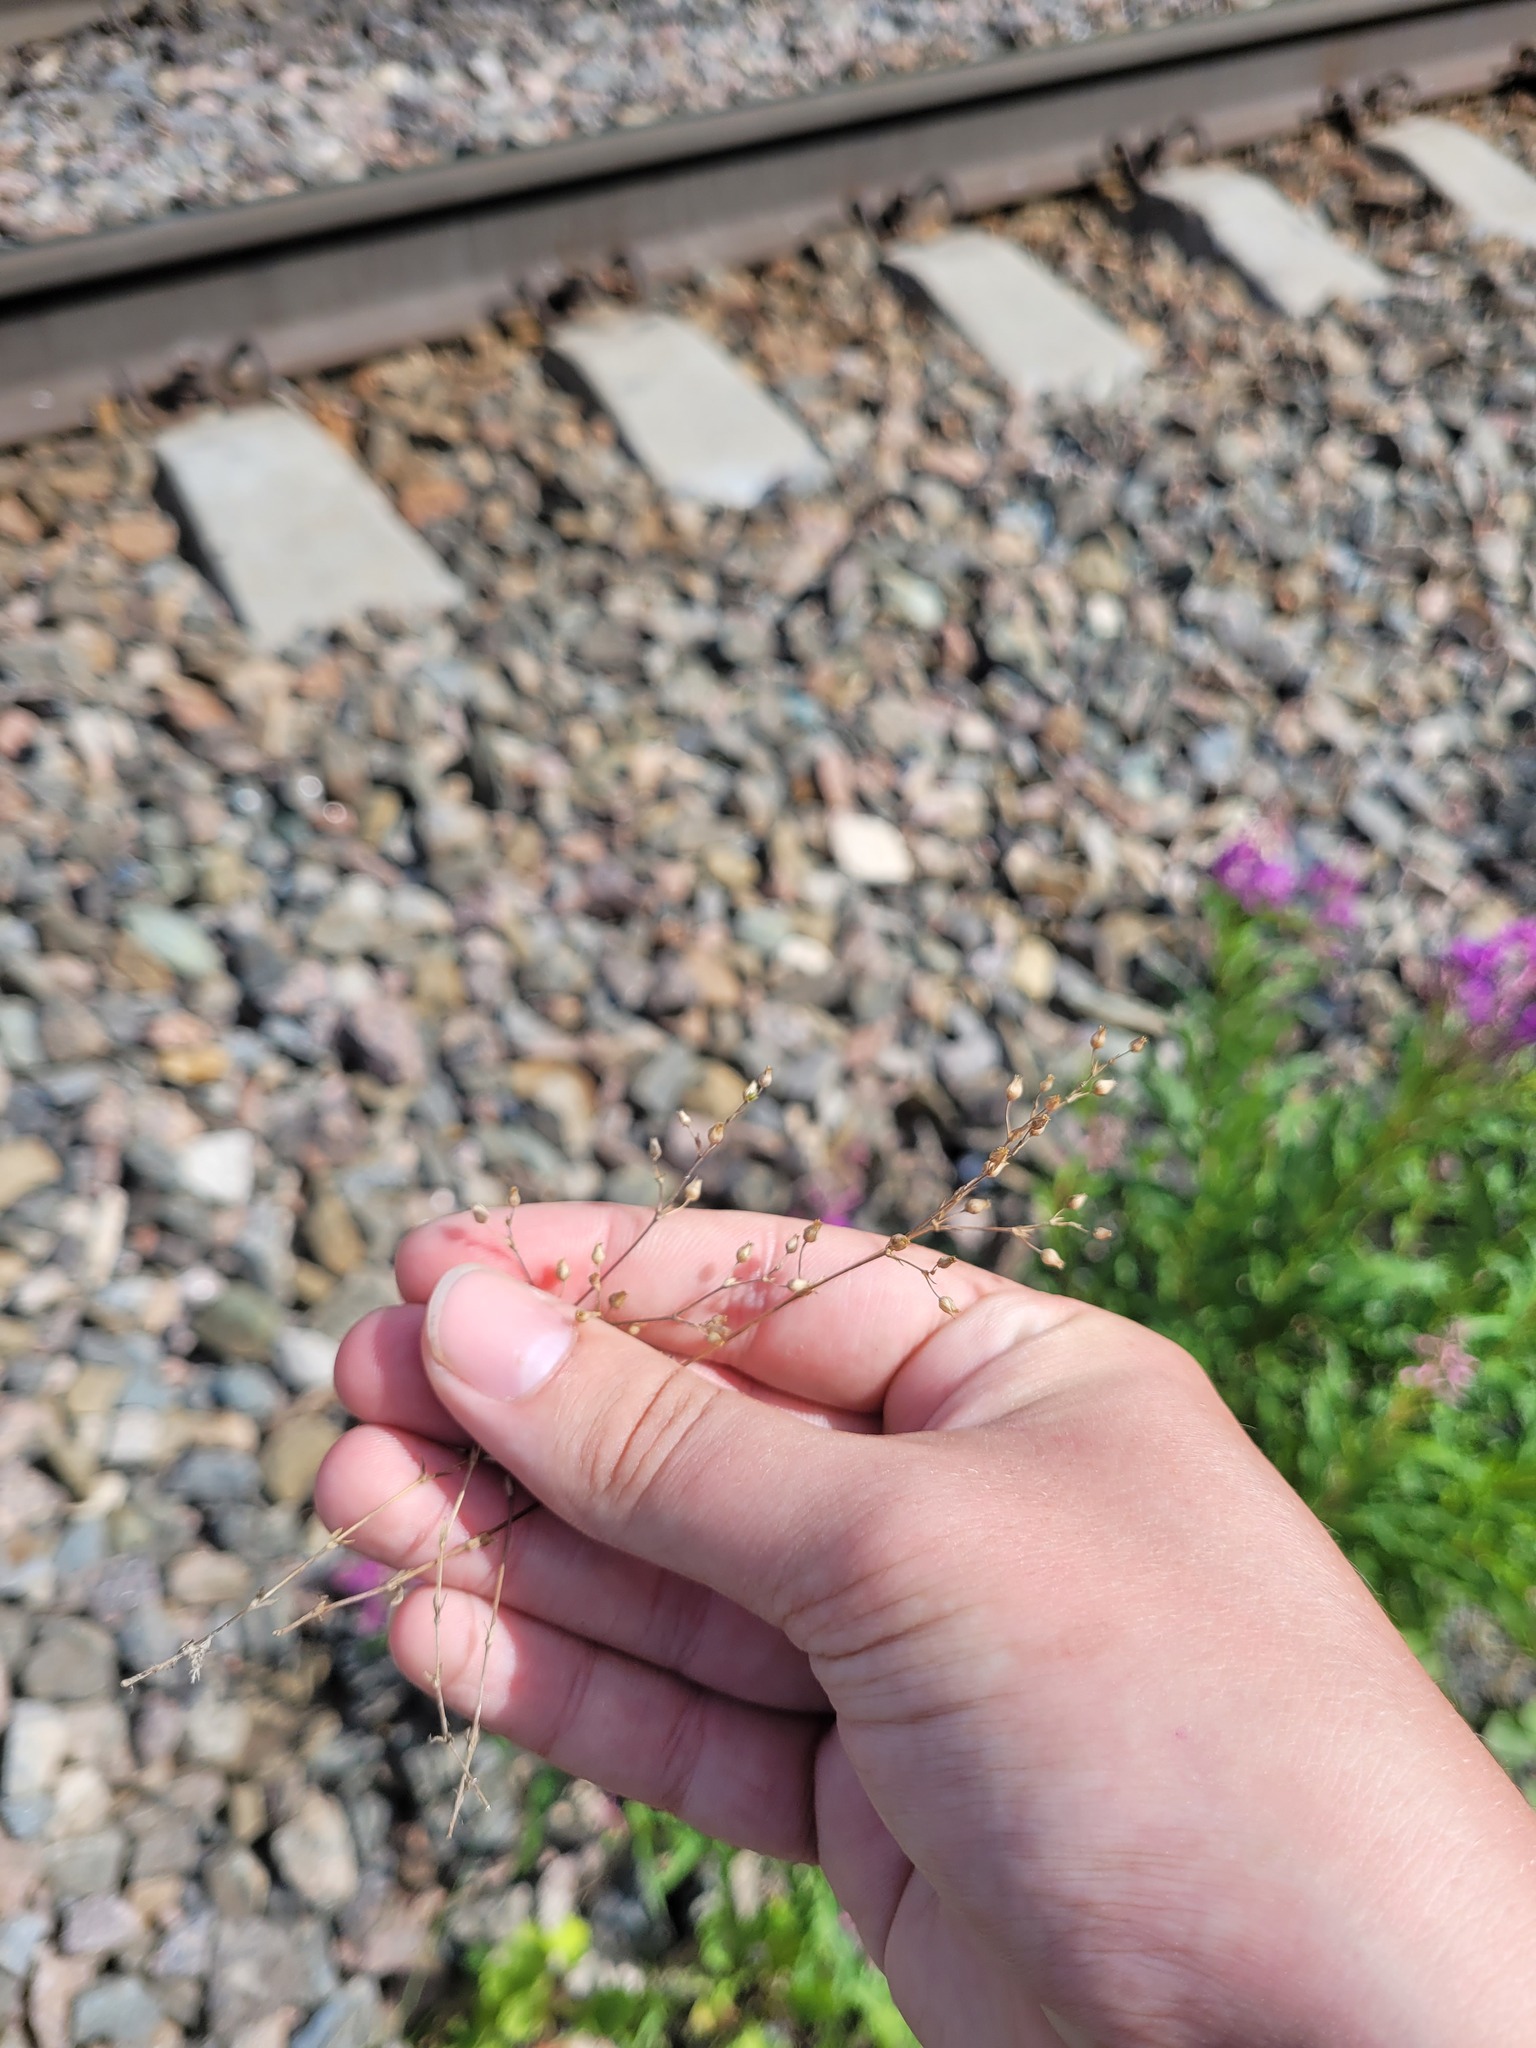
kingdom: Plantae
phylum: Tracheophyta
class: Magnoliopsida
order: Caryophyllales
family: Caryophyllaceae
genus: Arenaria
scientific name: Arenaria serpyllifolia
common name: Thyme-leaved sandwort
